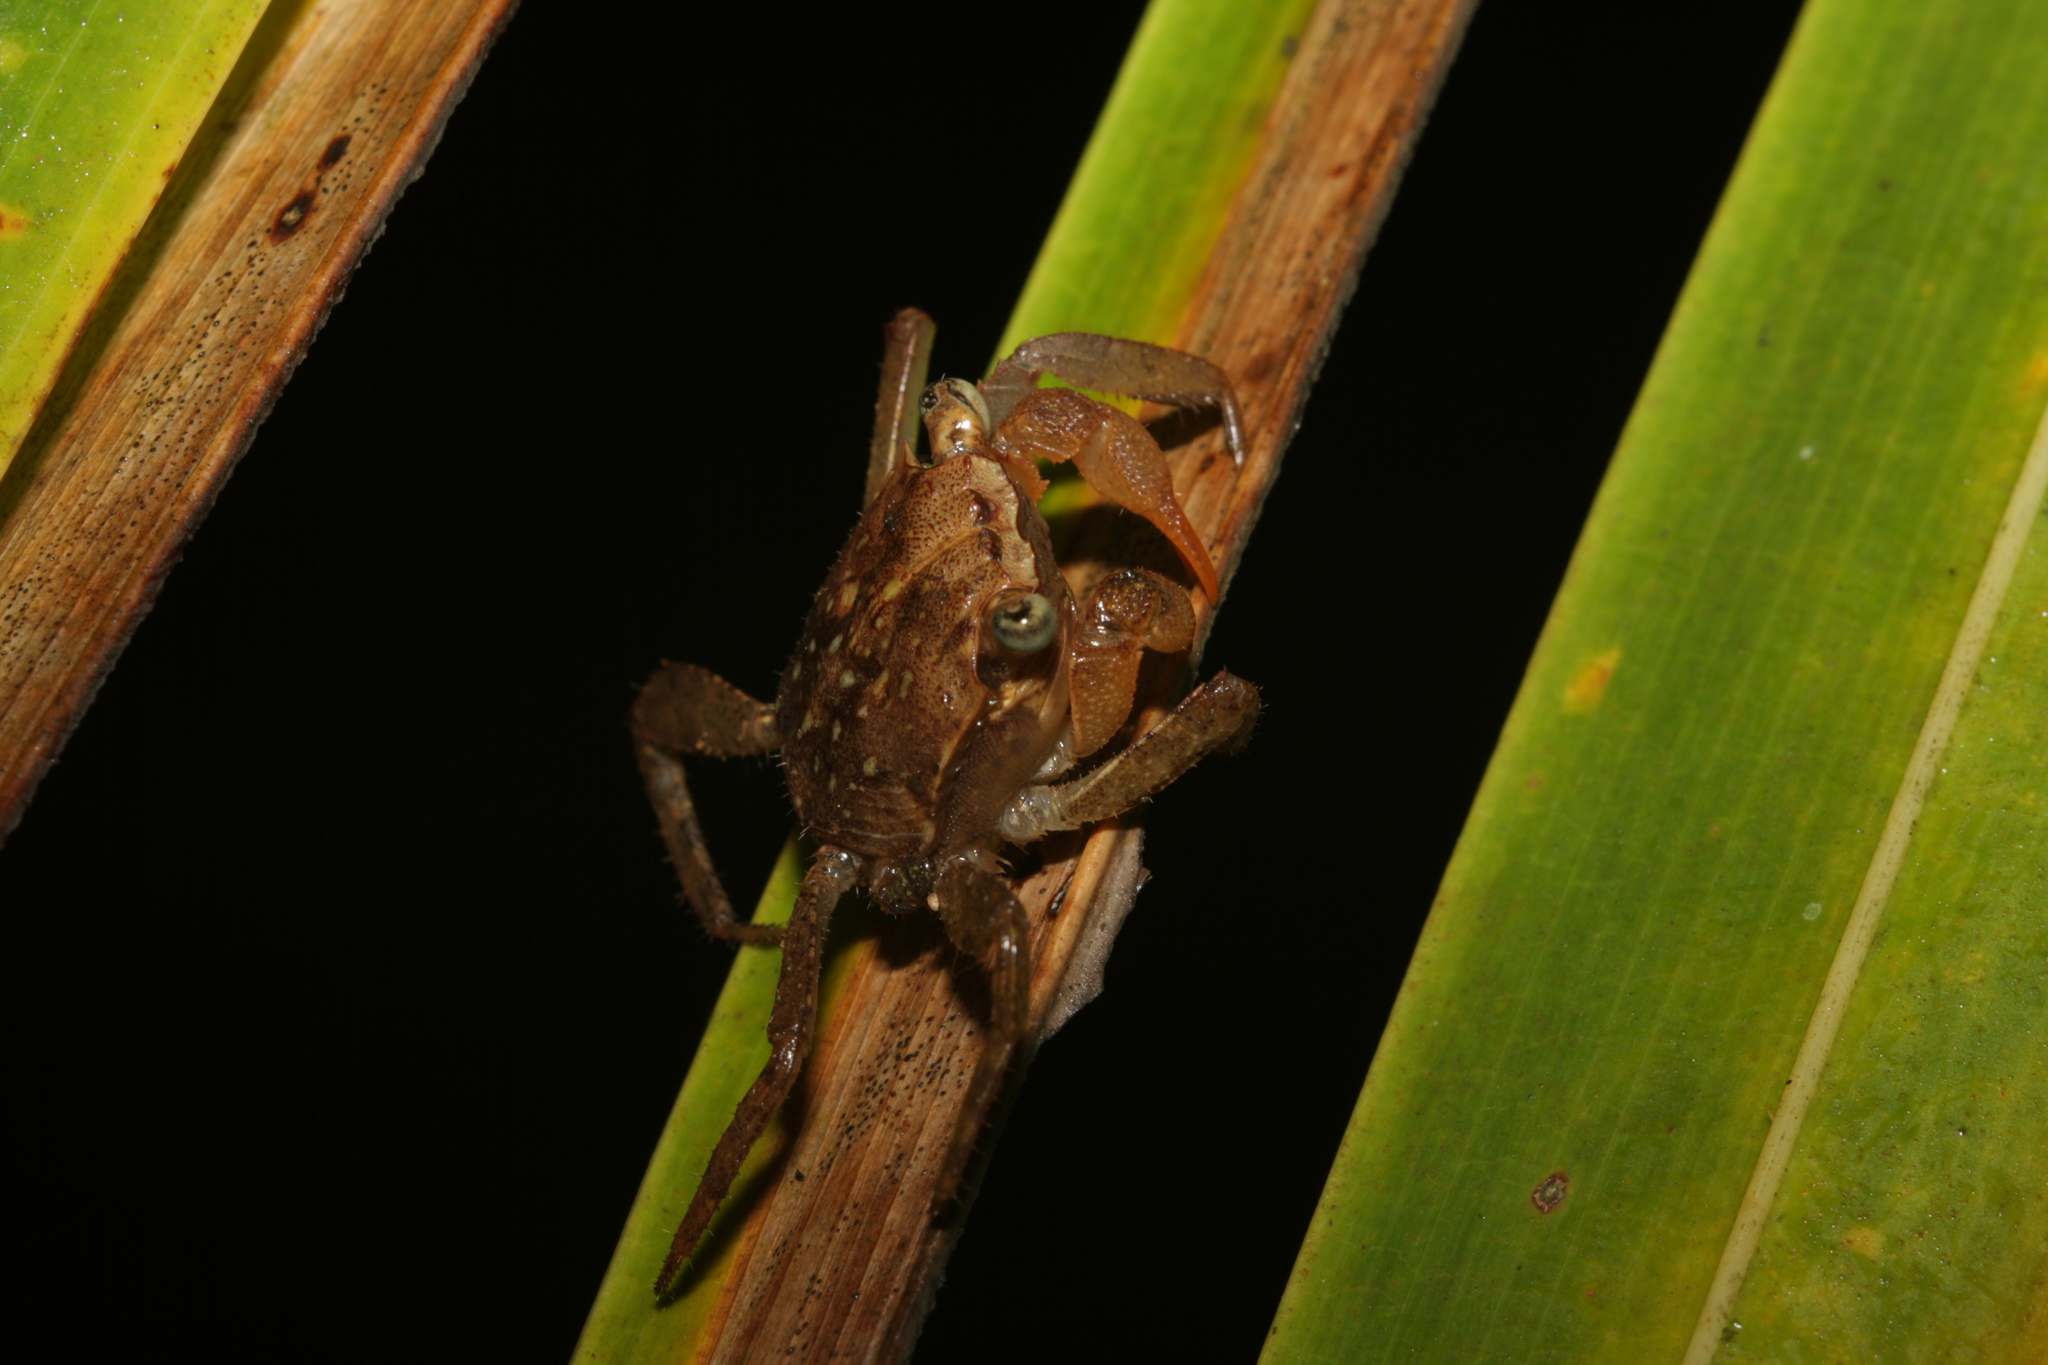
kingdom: Animalia
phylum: Arthropoda
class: Malacostraca
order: Decapoda
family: Sesarmidae
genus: Armases
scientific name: Armases angustum
